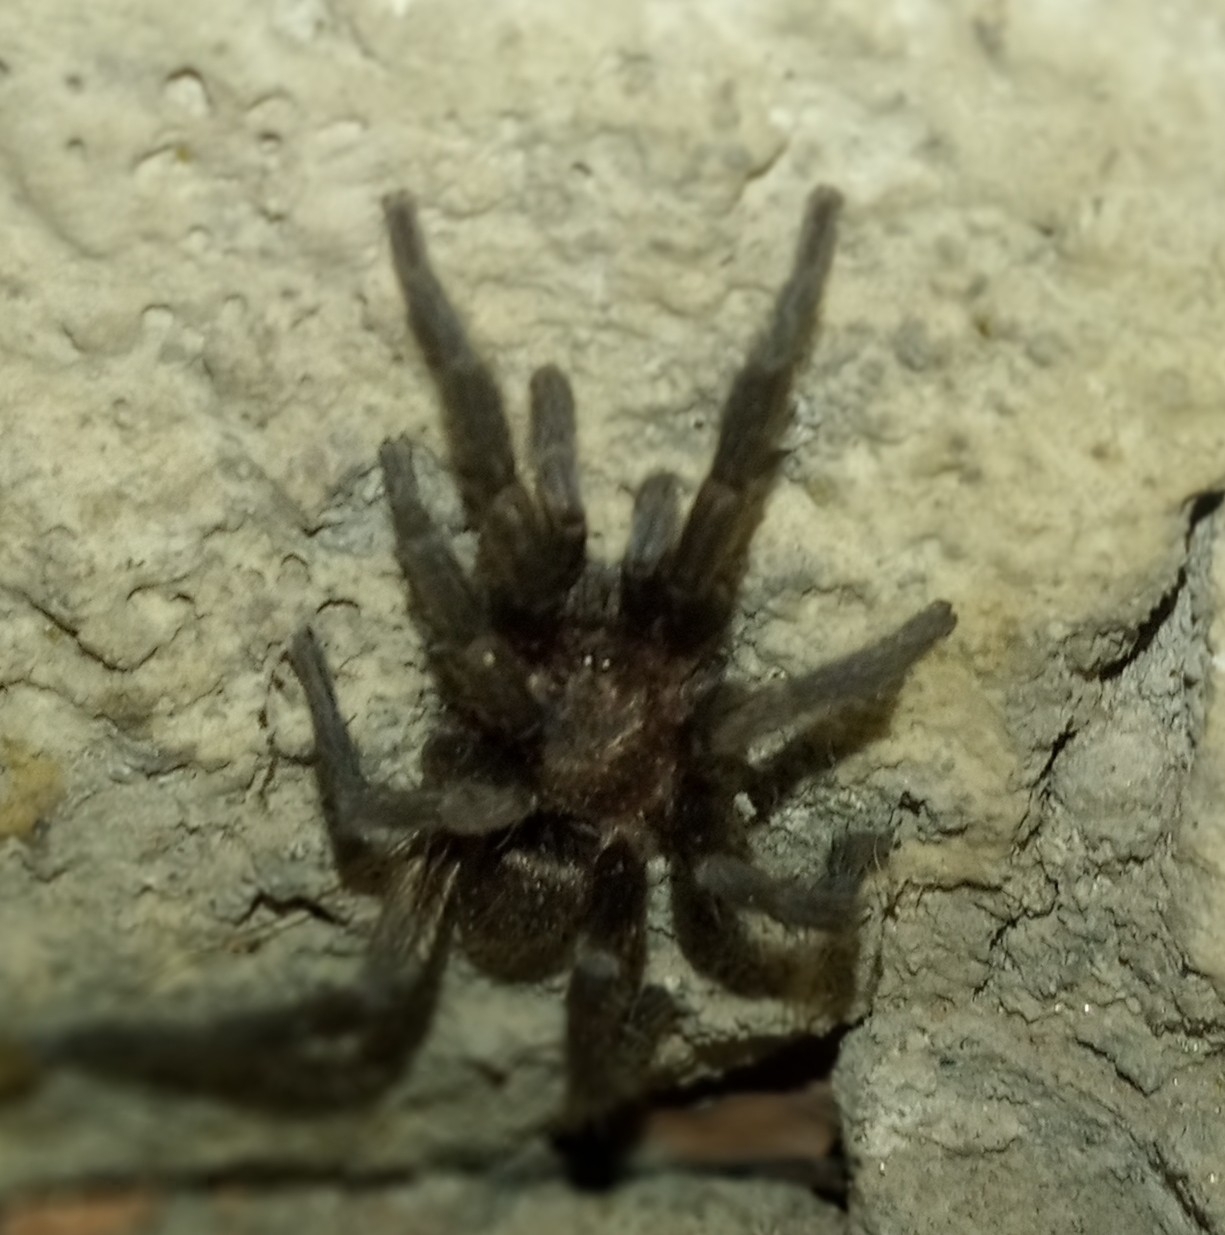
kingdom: Animalia
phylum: Arthropoda
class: Arachnida
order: Araneae
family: Theraphosidae
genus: Catumiri
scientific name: Catumiri argentinense
